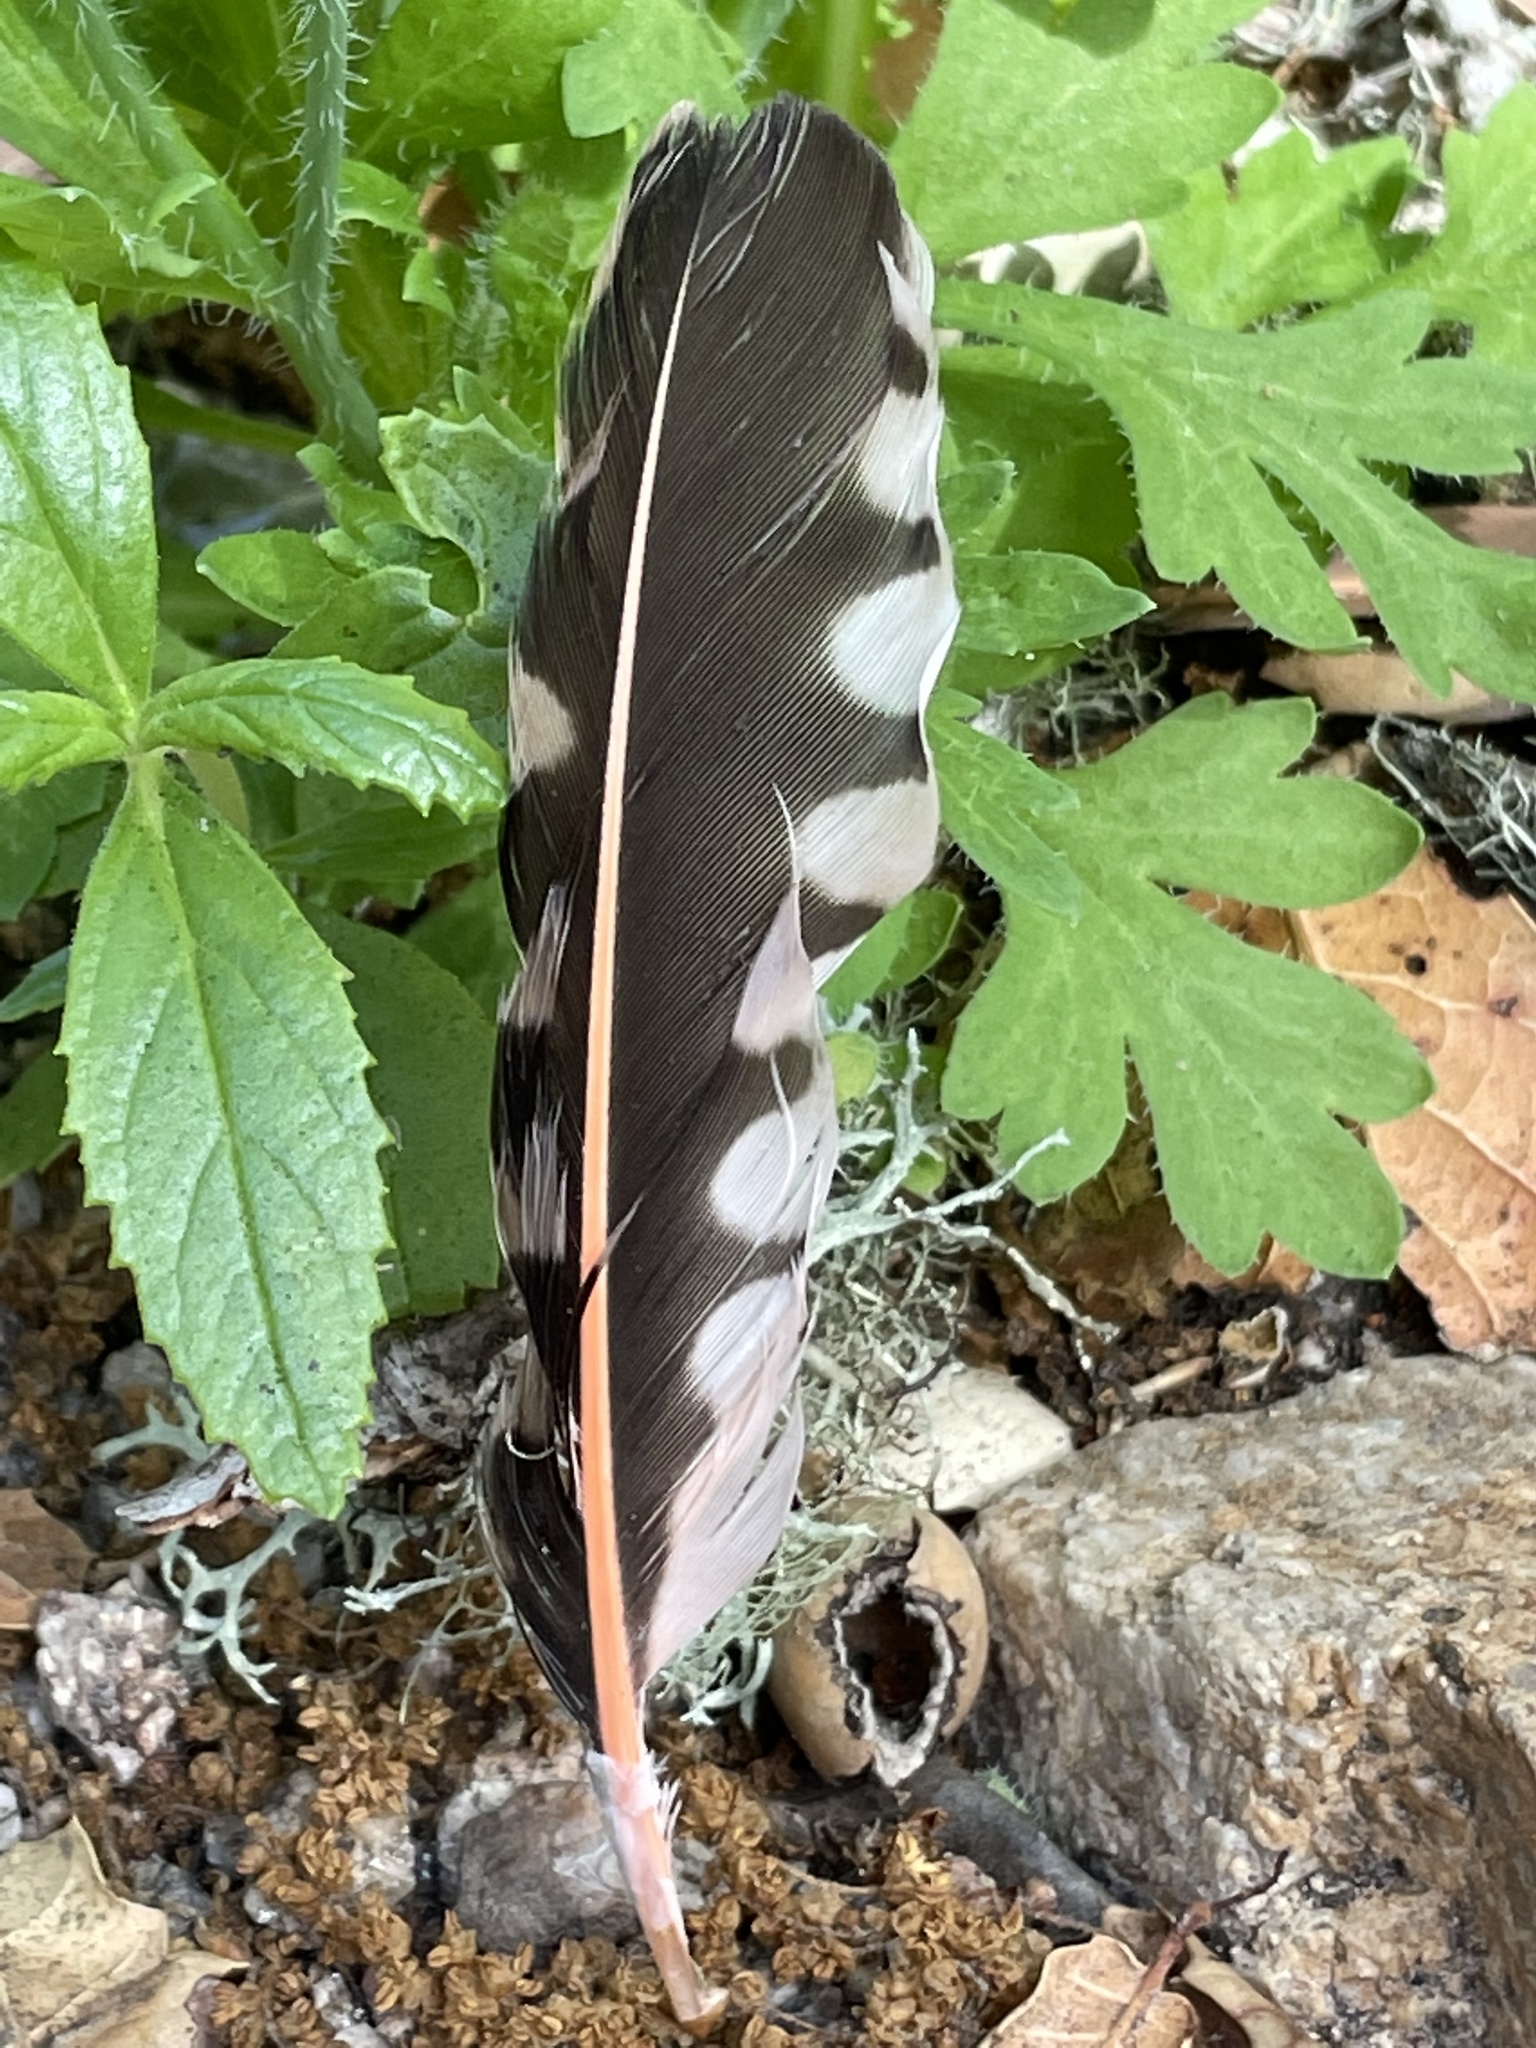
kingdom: Animalia
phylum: Chordata
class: Aves
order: Piciformes
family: Picidae
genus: Colaptes
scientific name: Colaptes auratus
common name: Northern flicker
